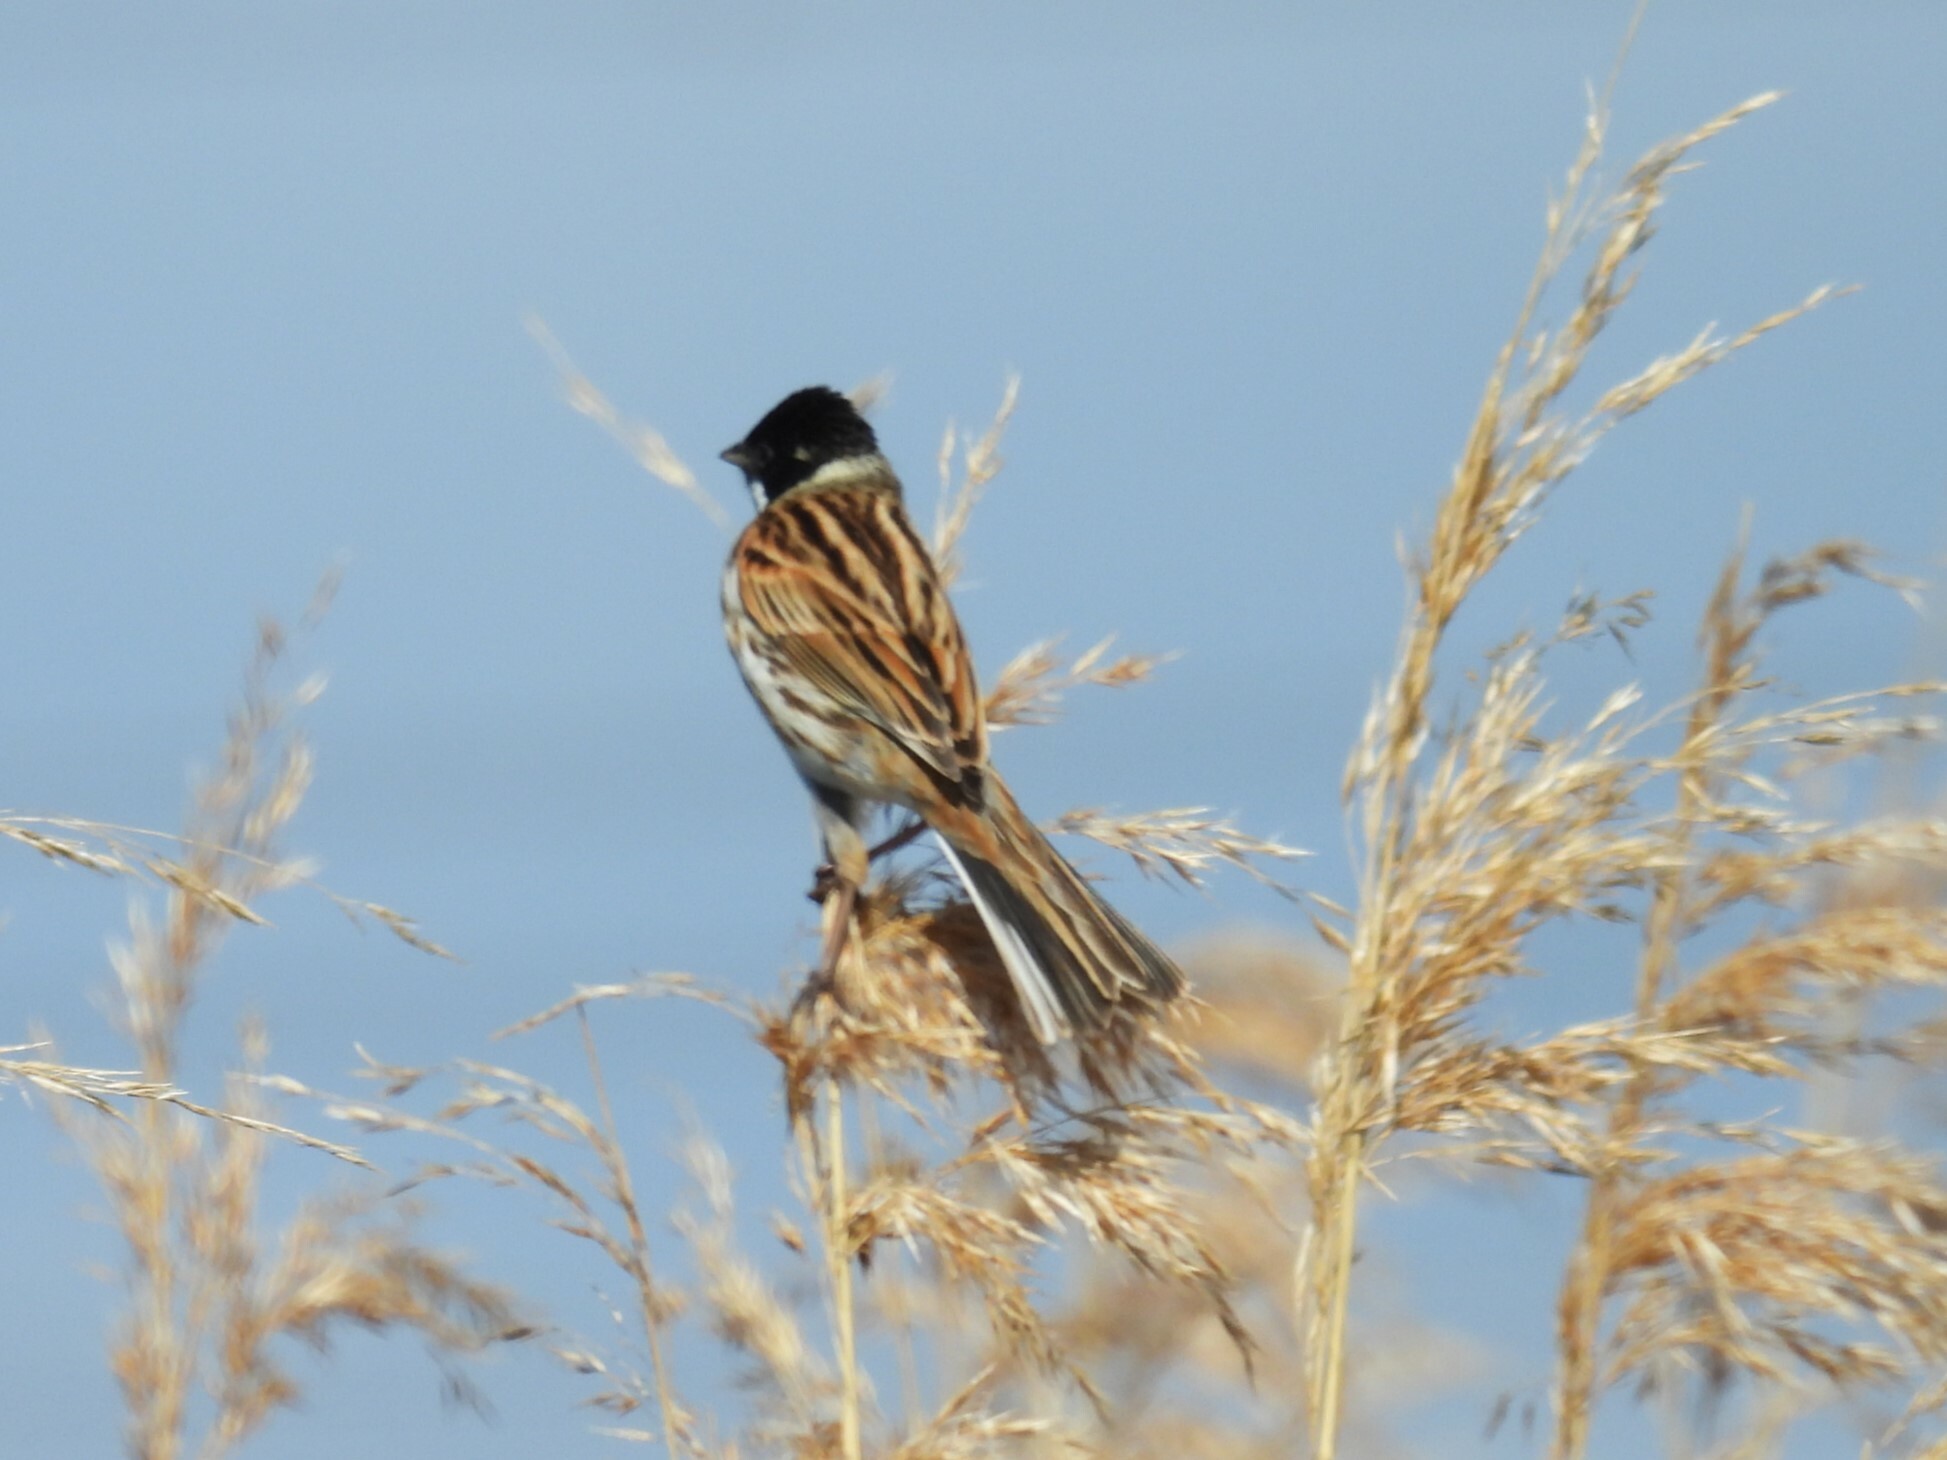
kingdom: Animalia
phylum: Chordata
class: Aves
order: Passeriformes
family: Emberizidae
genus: Emberiza
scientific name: Emberiza schoeniclus
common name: Reed bunting
